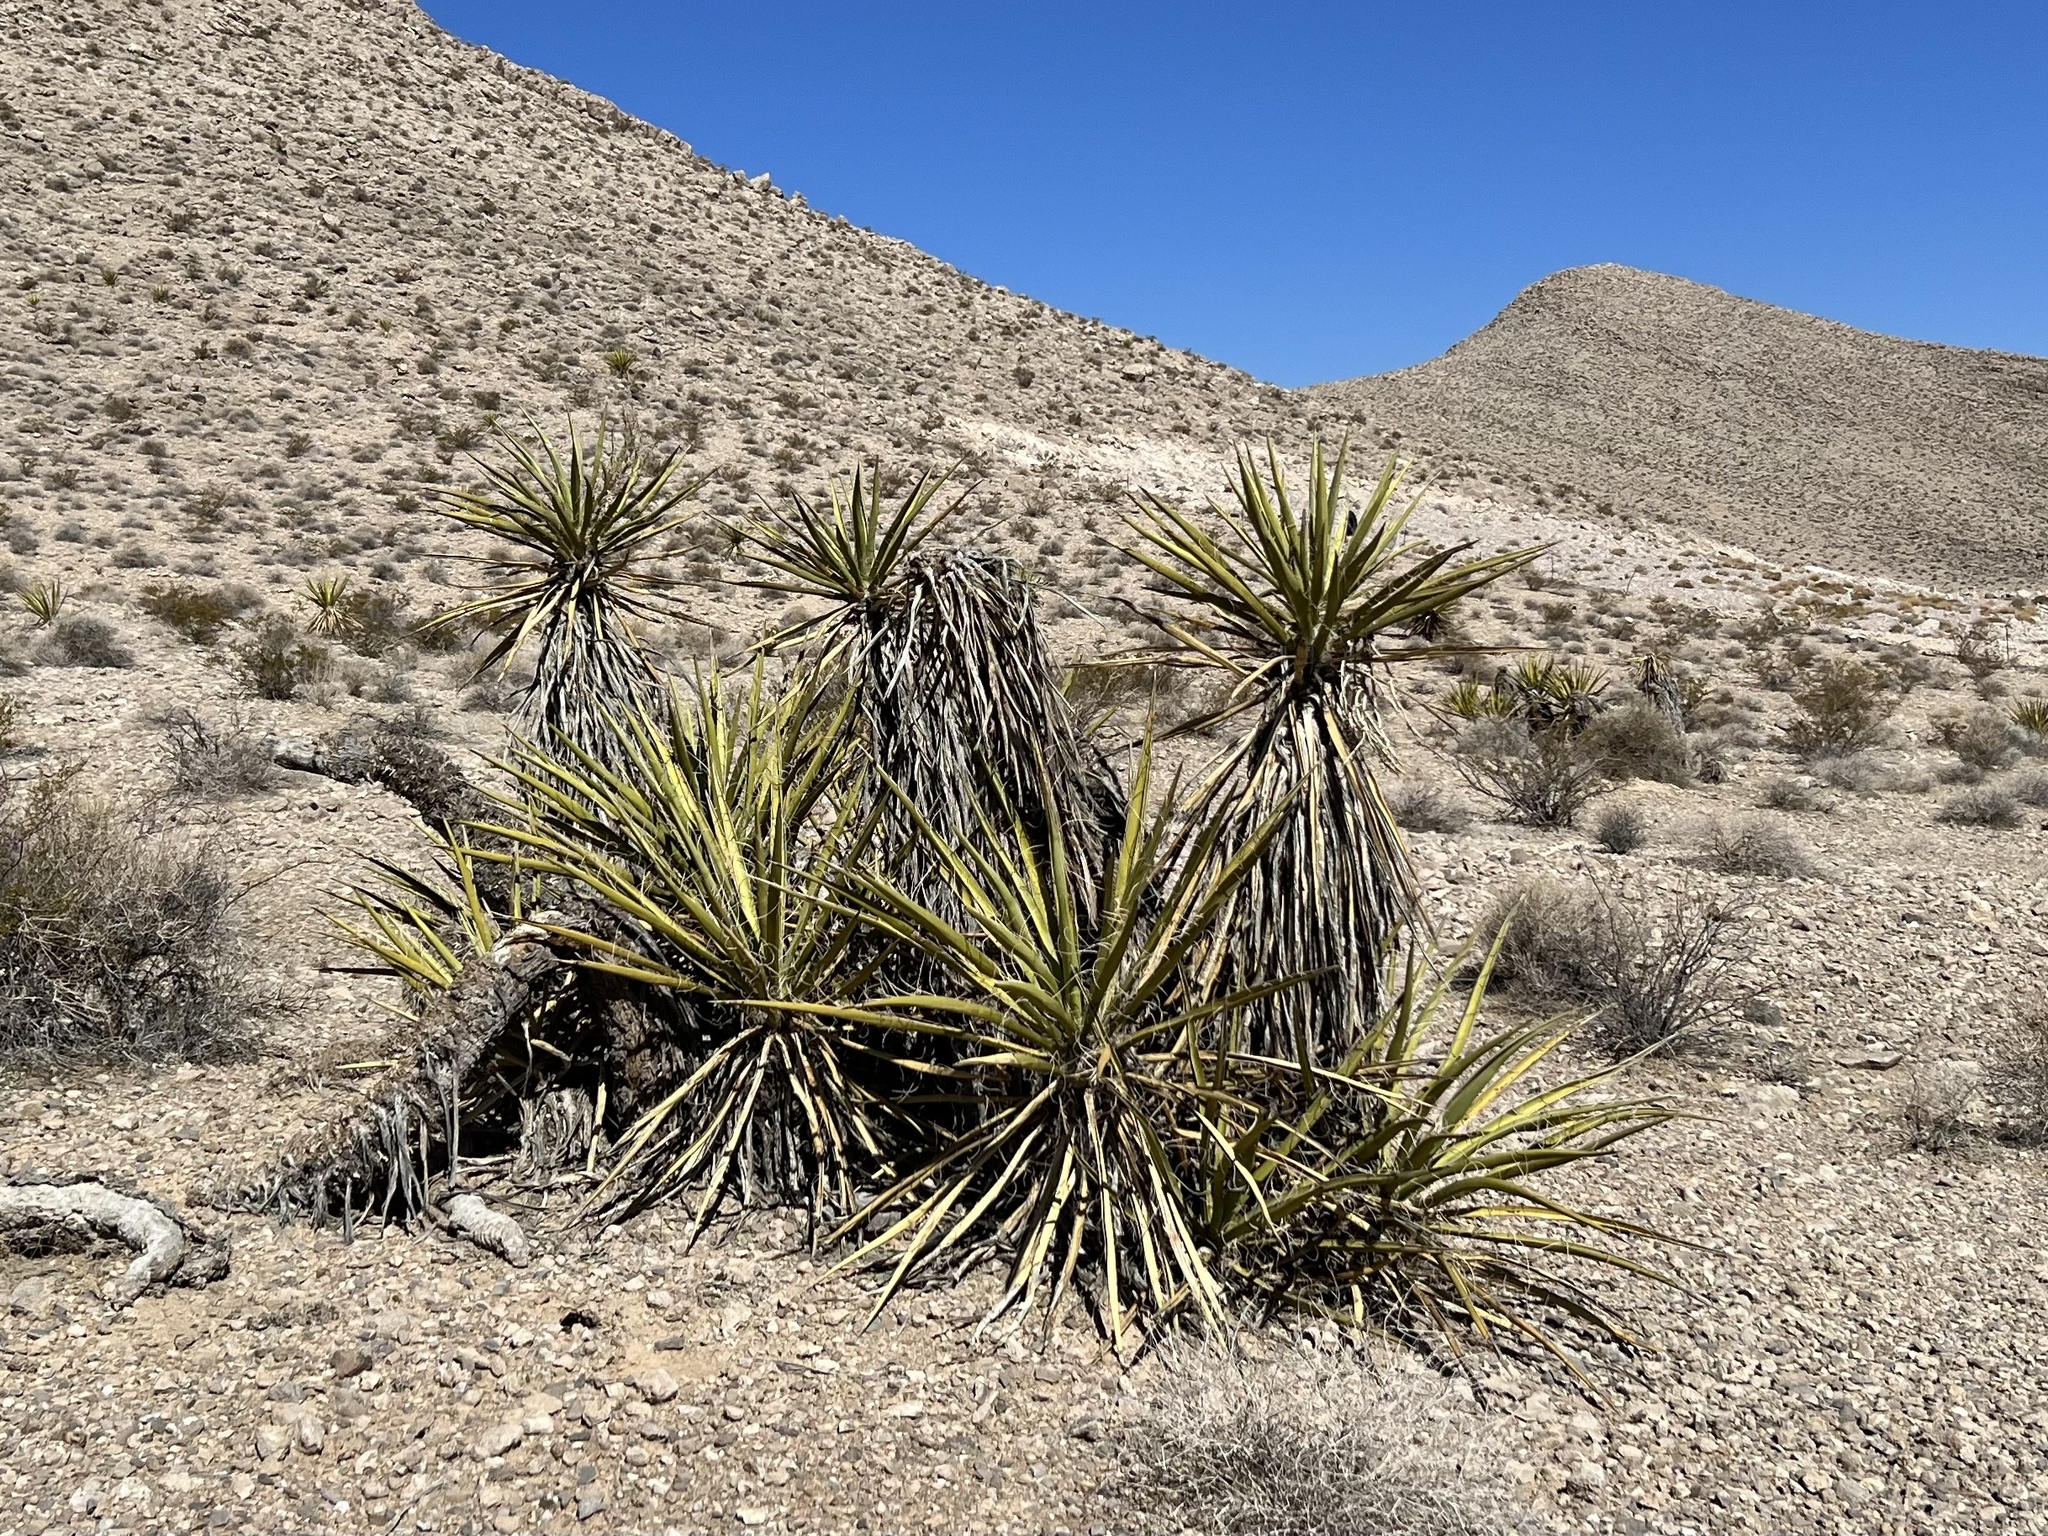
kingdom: Plantae
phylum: Tracheophyta
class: Liliopsida
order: Asparagales
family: Asparagaceae
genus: Yucca
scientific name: Yucca schidigera
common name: Mojave yucca
